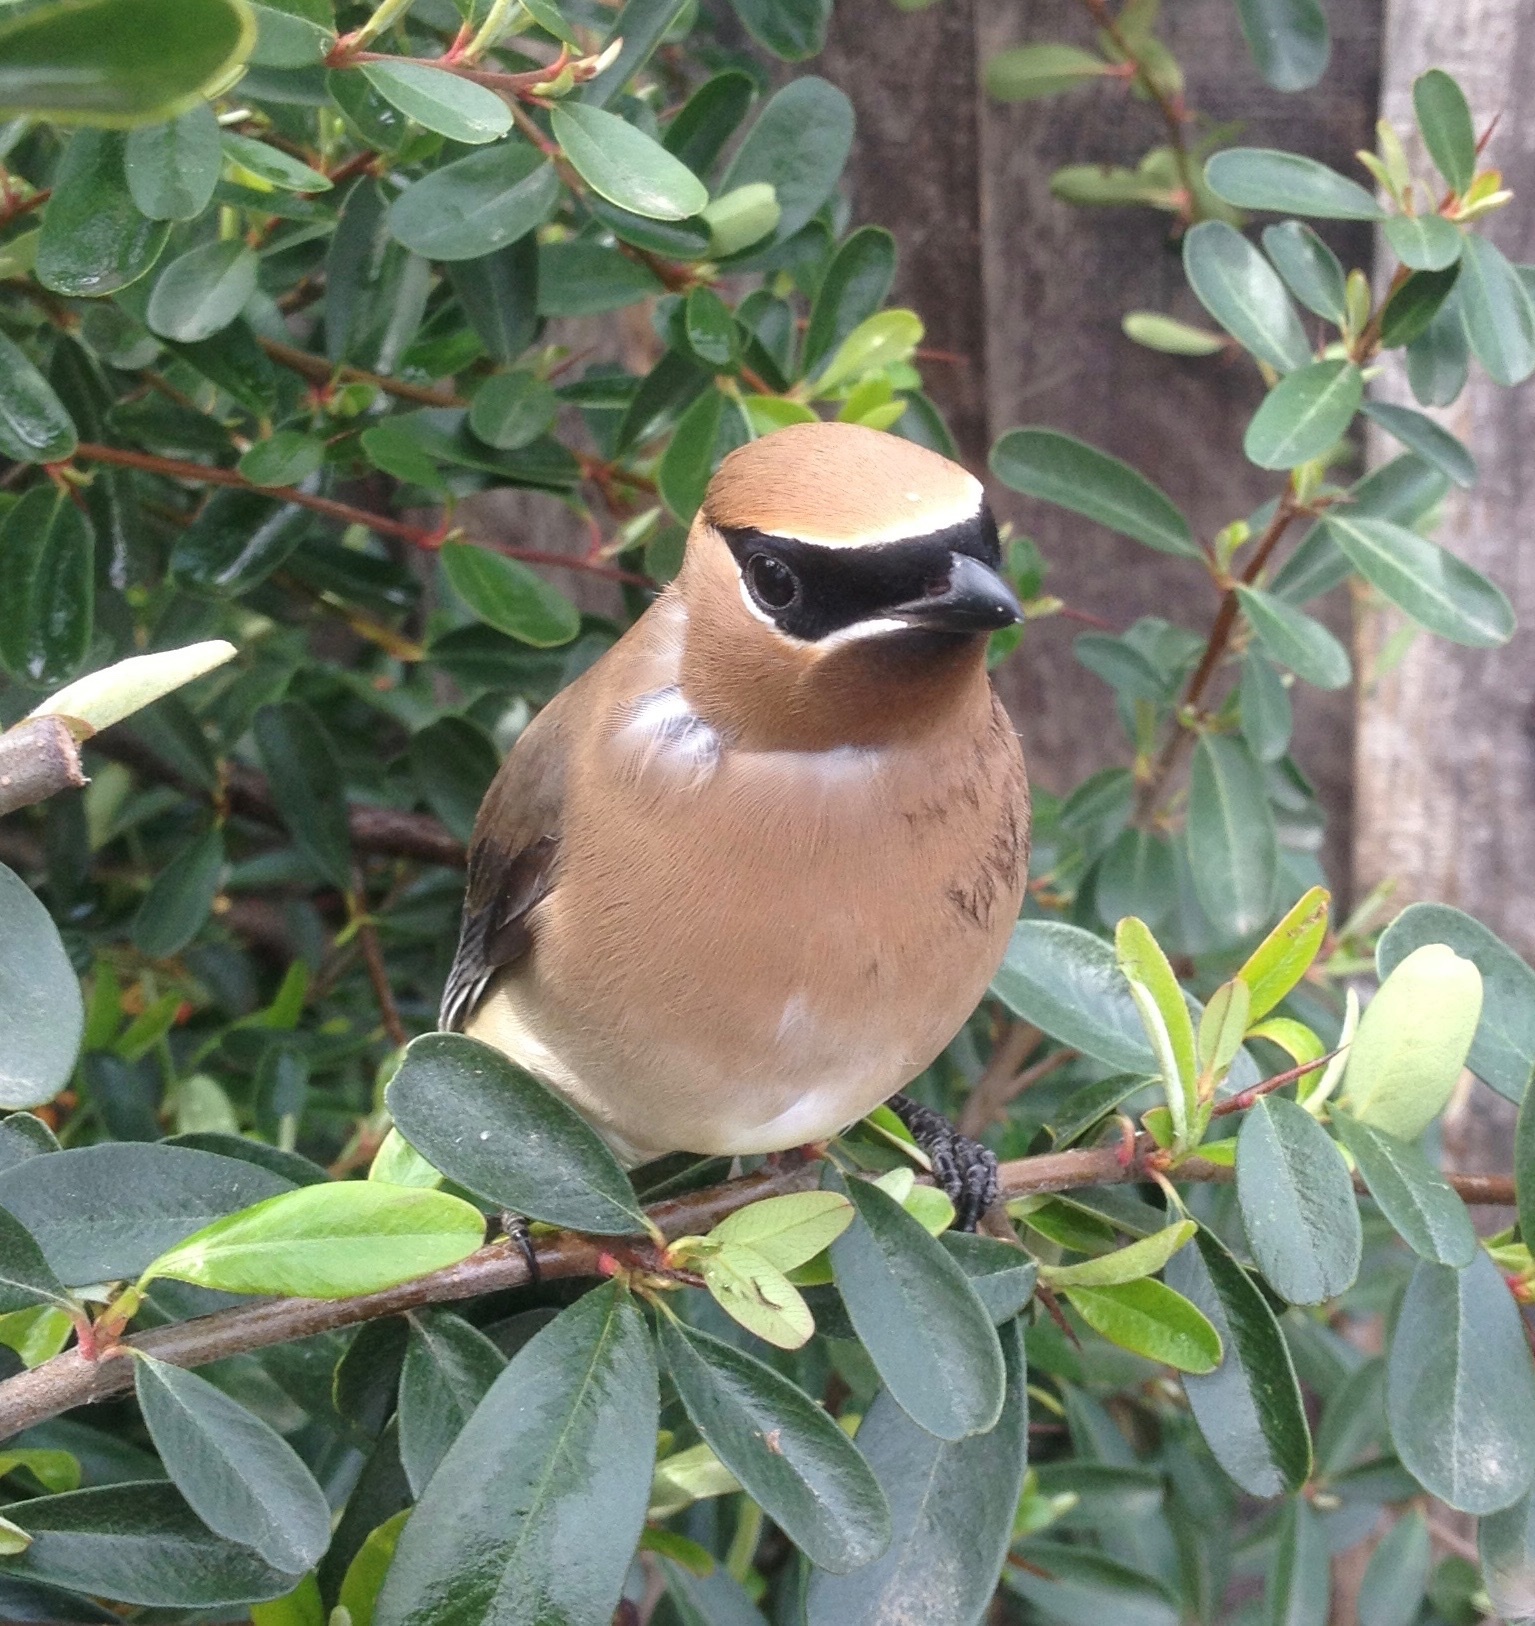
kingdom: Animalia
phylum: Chordata
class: Aves
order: Passeriformes
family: Bombycillidae
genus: Bombycilla
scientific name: Bombycilla cedrorum
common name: Cedar waxwing
